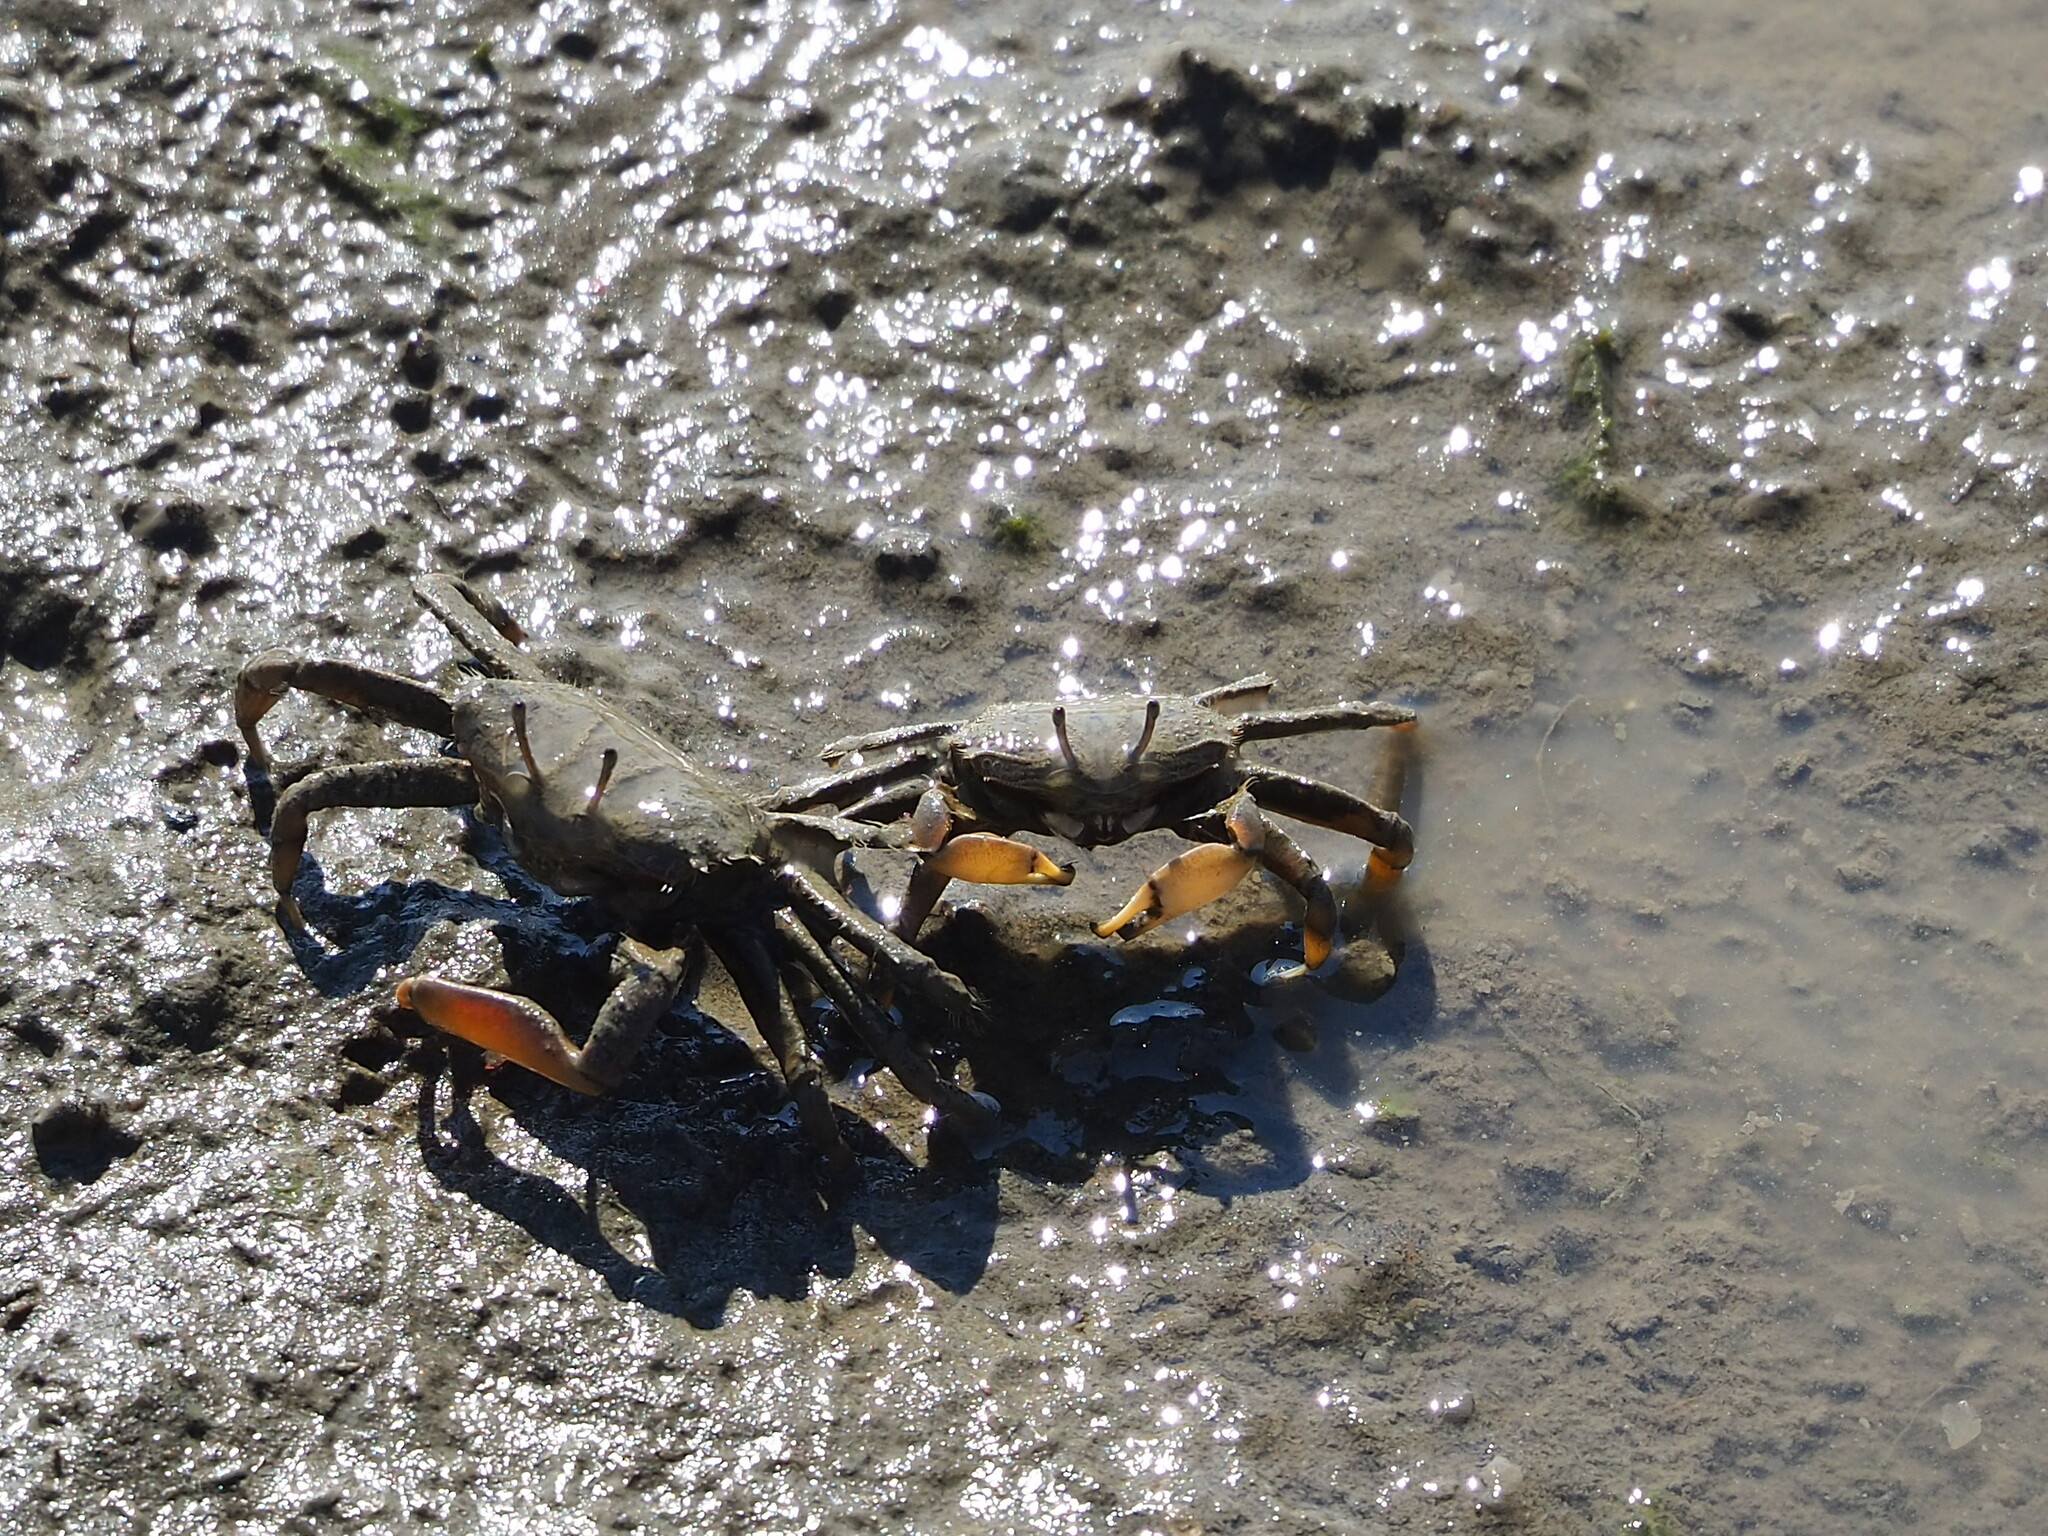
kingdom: Animalia
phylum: Arthropoda
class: Malacostraca
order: Decapoda
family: Macrophthalmidae
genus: Macrophthalmus
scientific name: Macrophthalmus banzai
